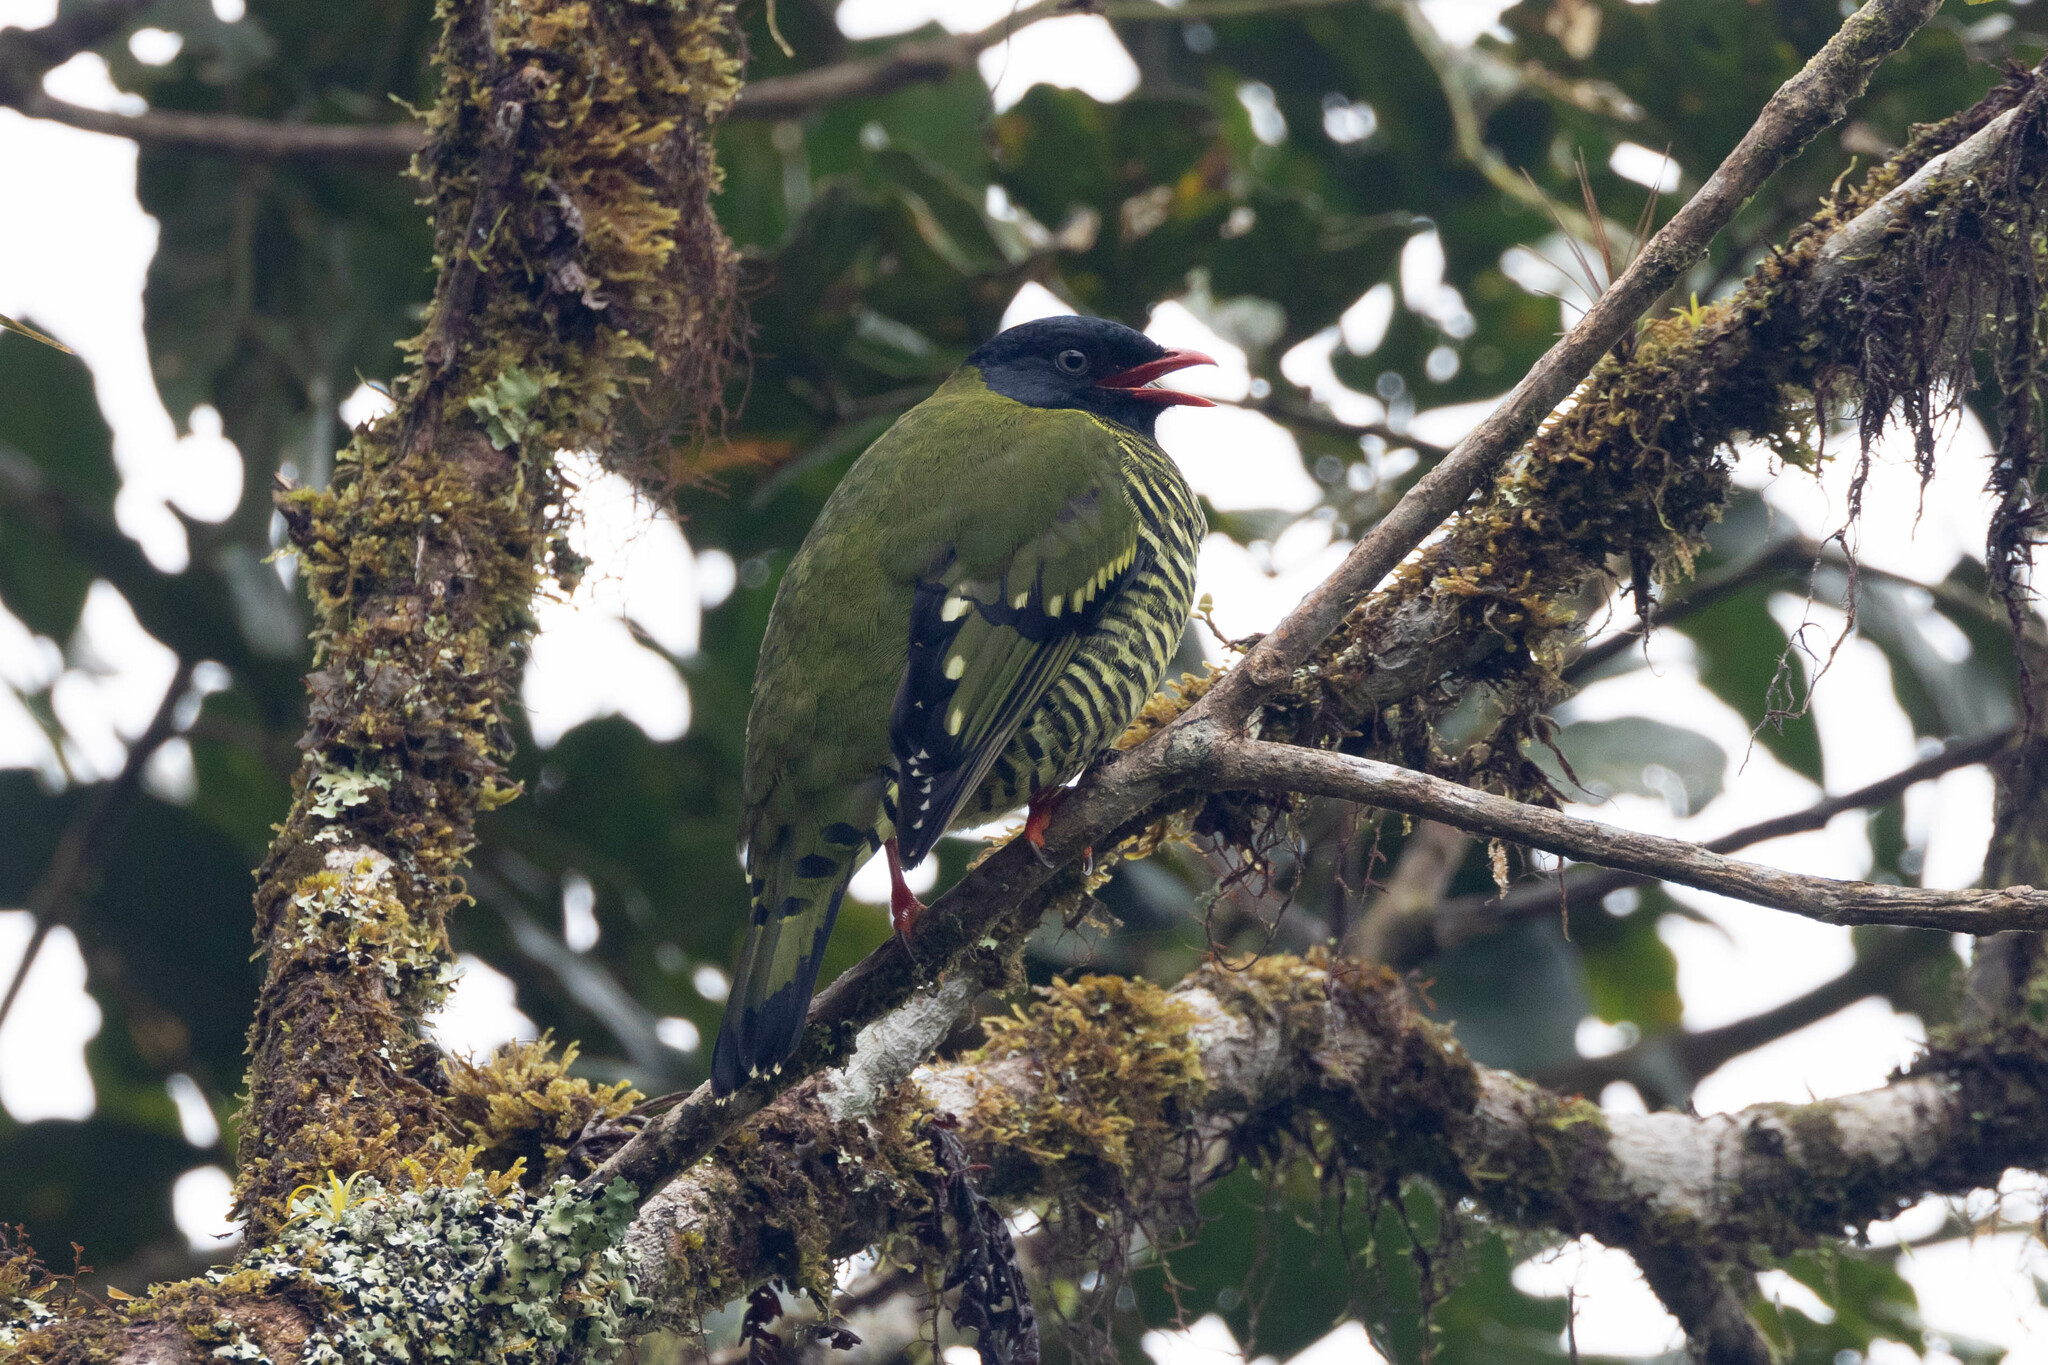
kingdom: Animalia
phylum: Chordata
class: Aves
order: Passeriformes
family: Cotingidae
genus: Pipreola
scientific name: Pipreola arcuata
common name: Barred fruiteater
